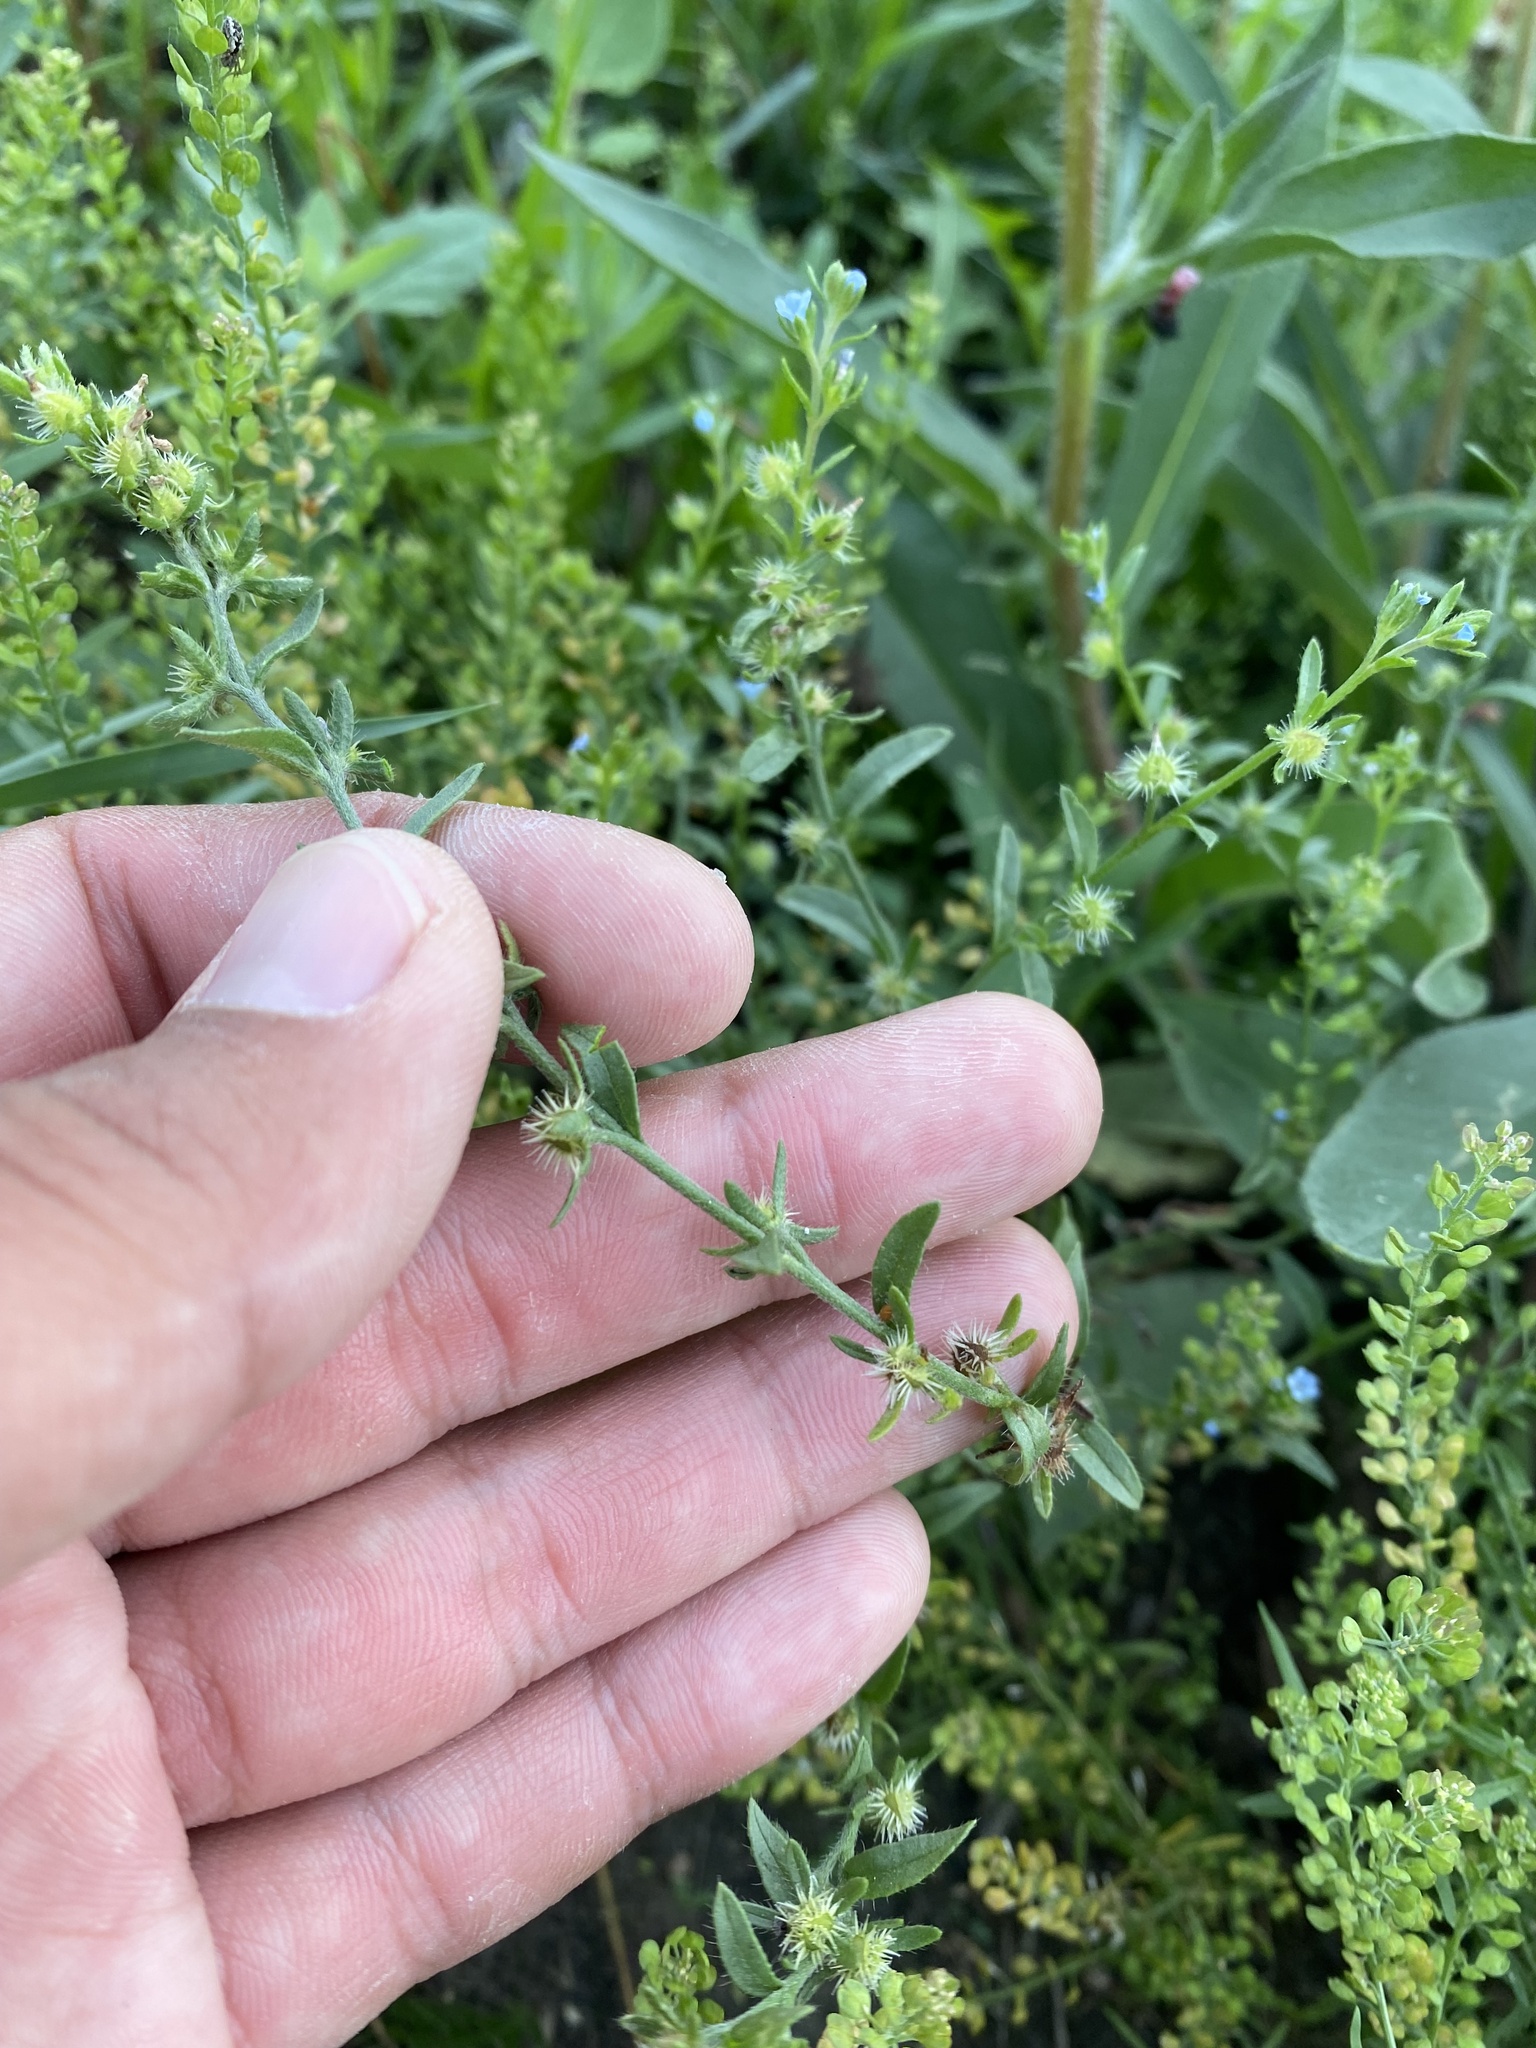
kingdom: Plantae
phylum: Tracheophyta
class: Magnoliopsida
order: Boraginales
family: Boraginaceae
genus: Lappula
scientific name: Lappula squarrosa
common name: European stickseed
